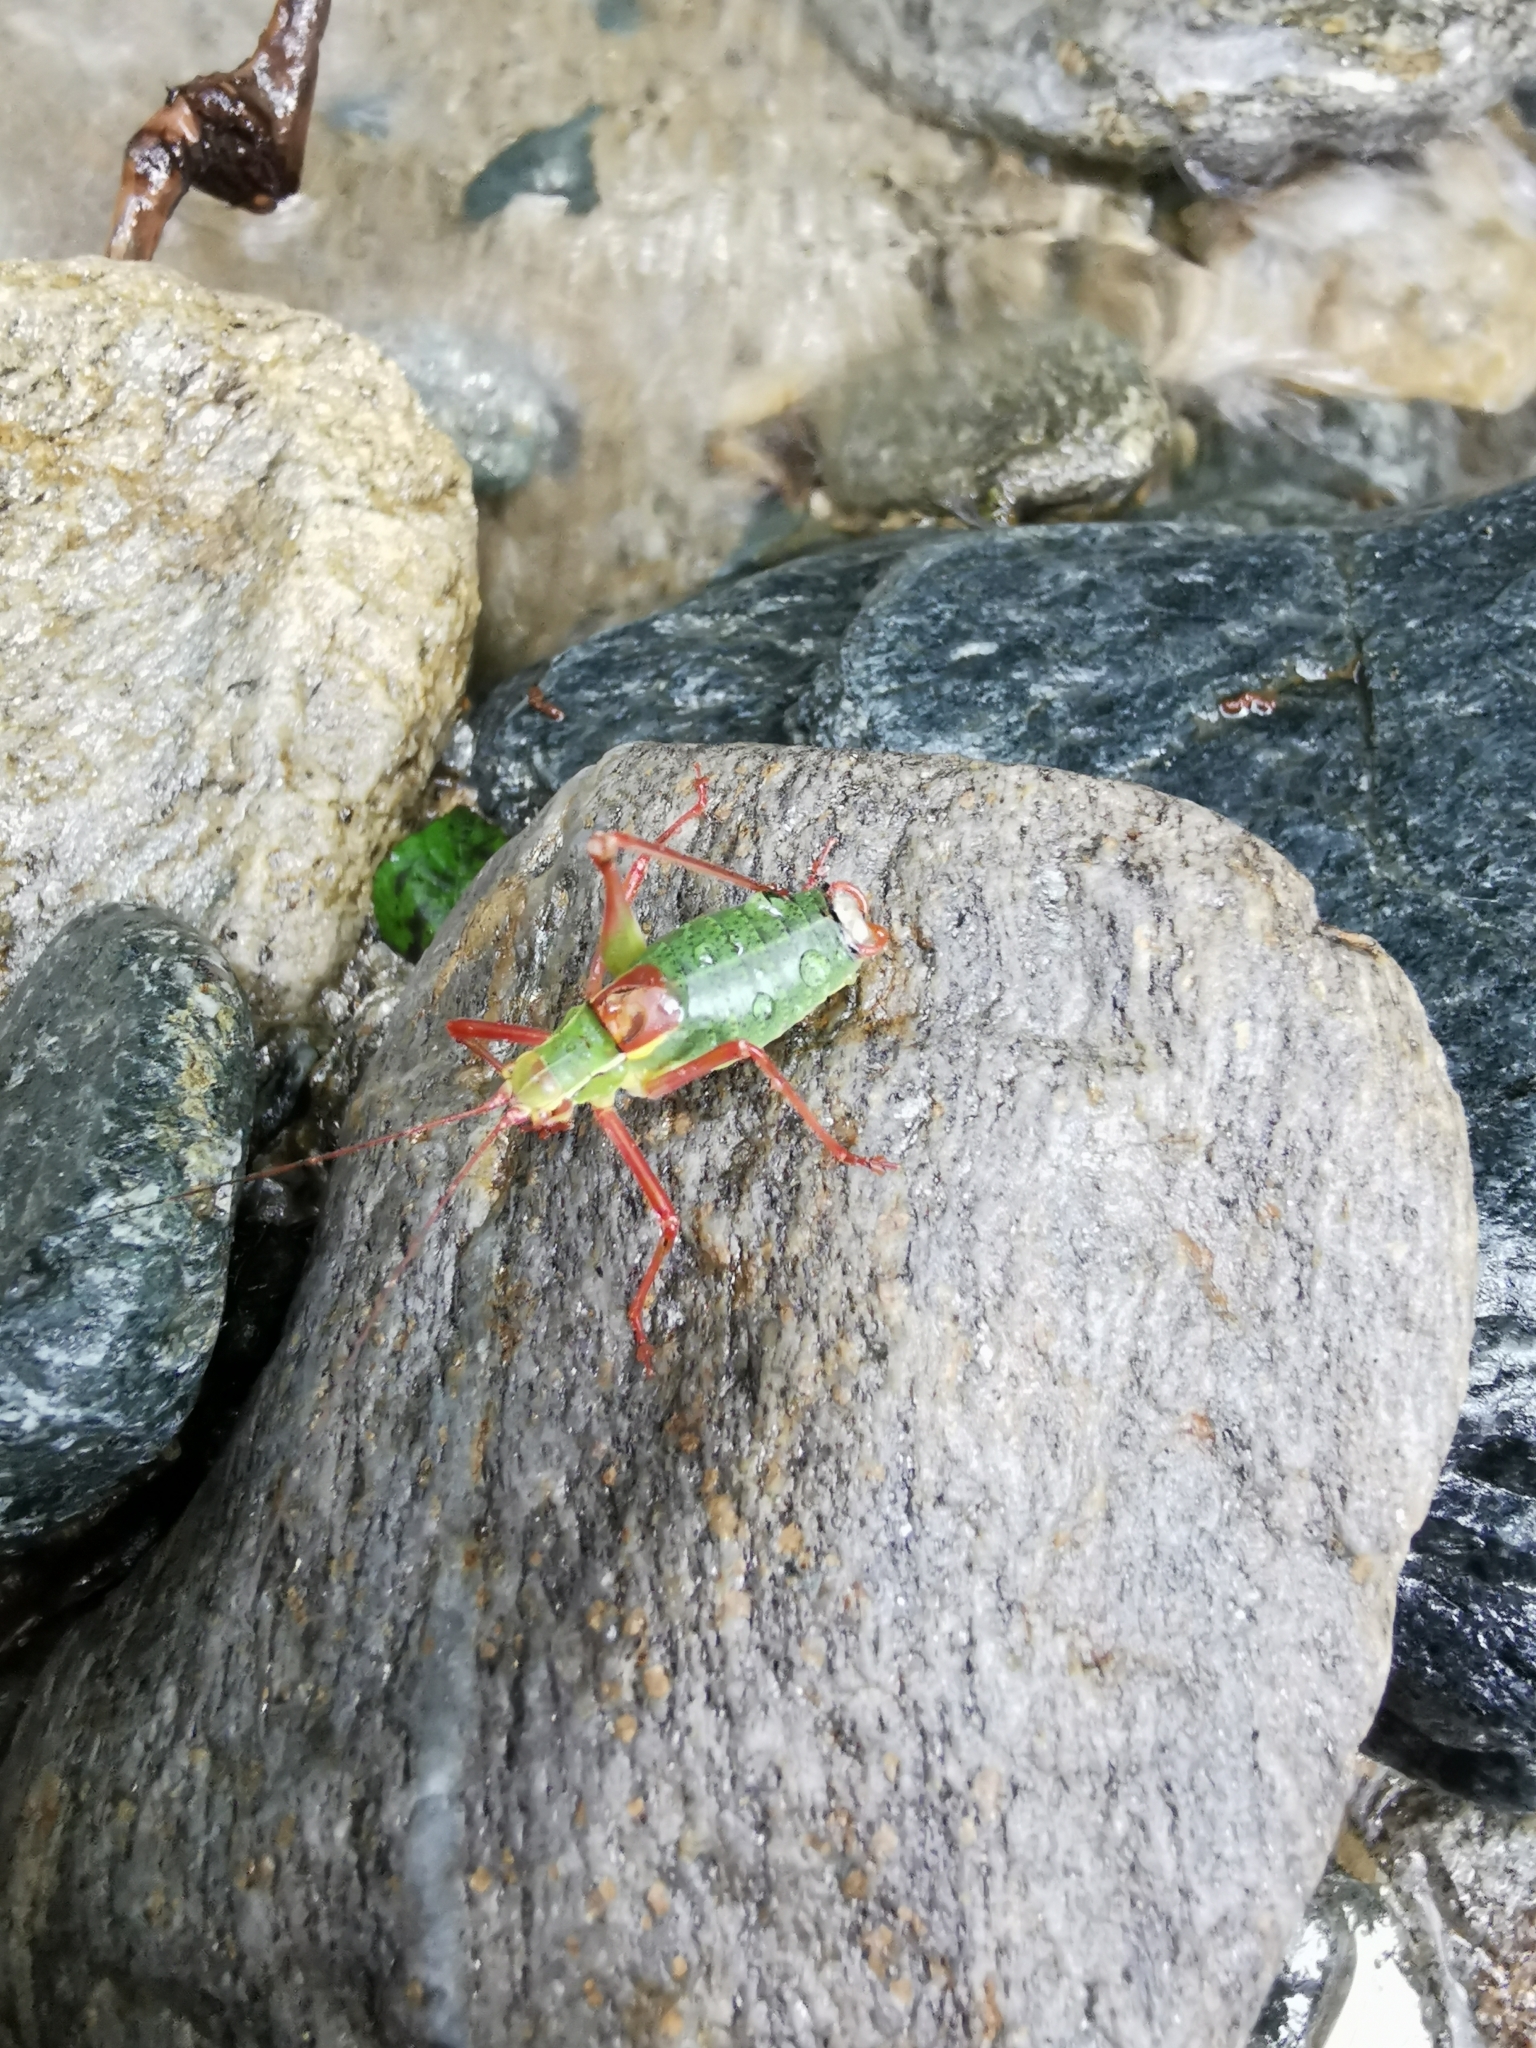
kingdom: Animalia
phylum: Arthropoda
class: Insecta
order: Orthoptera
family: Tettigoniidae
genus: Barbitistes
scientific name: Barbitistes serricauda
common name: Saw-tailed bush-cricket
